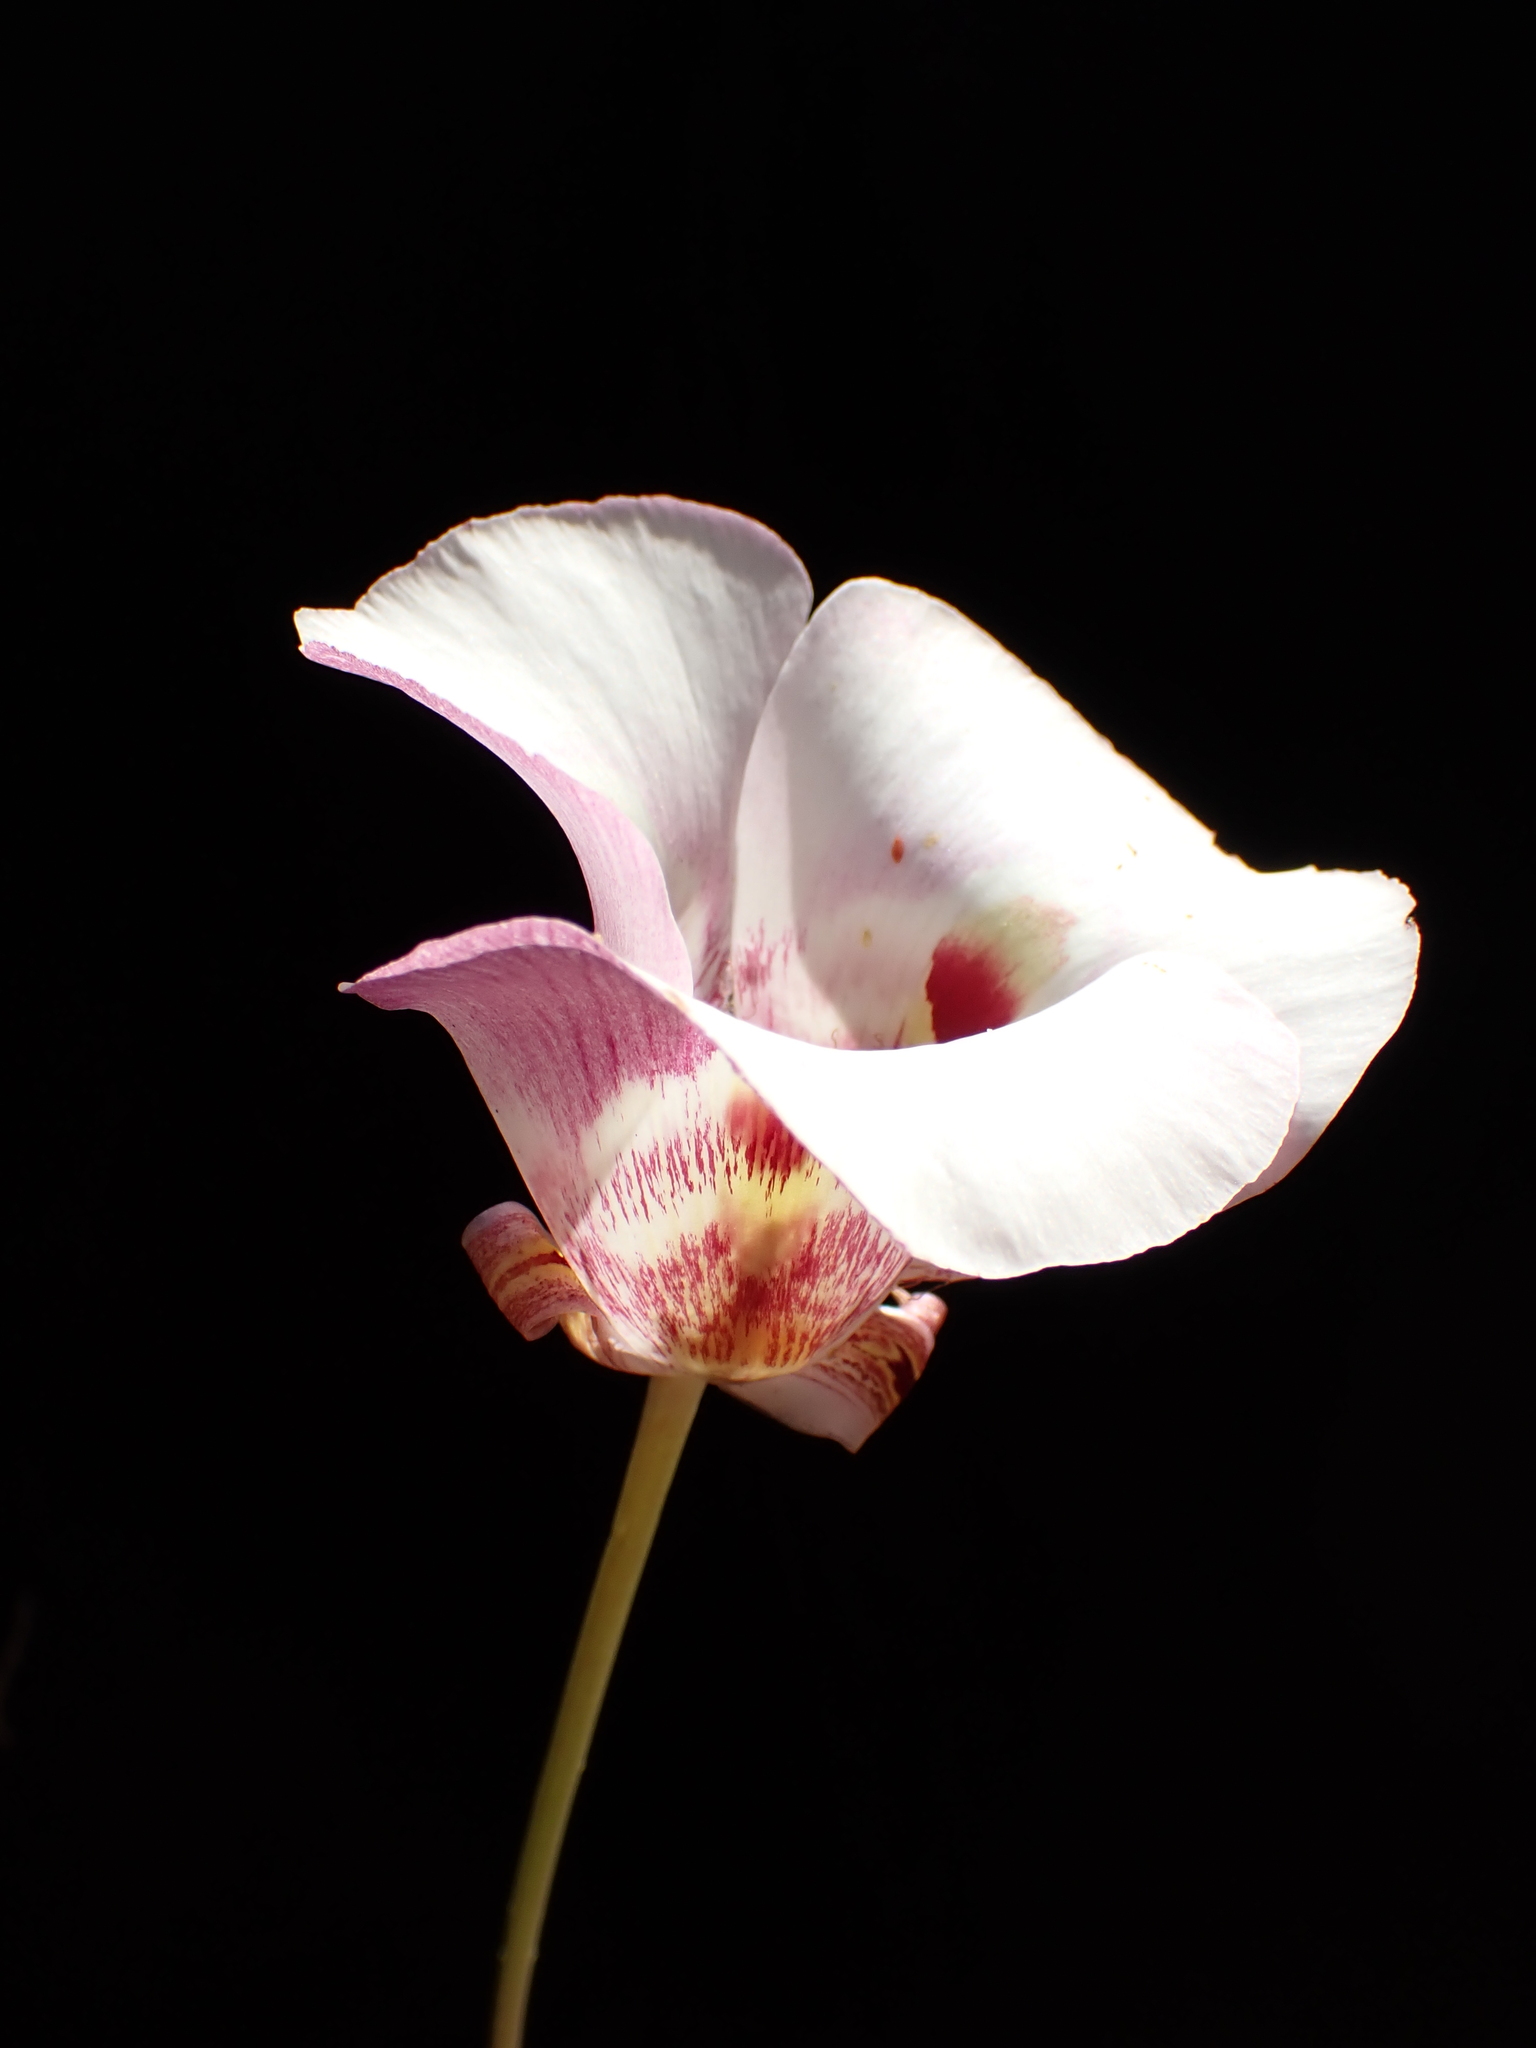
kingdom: Plantae
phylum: Tracheophyta
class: Liliopsida
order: Liliales
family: Liliaceae
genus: Calochortus
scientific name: Calochortus argillosus
